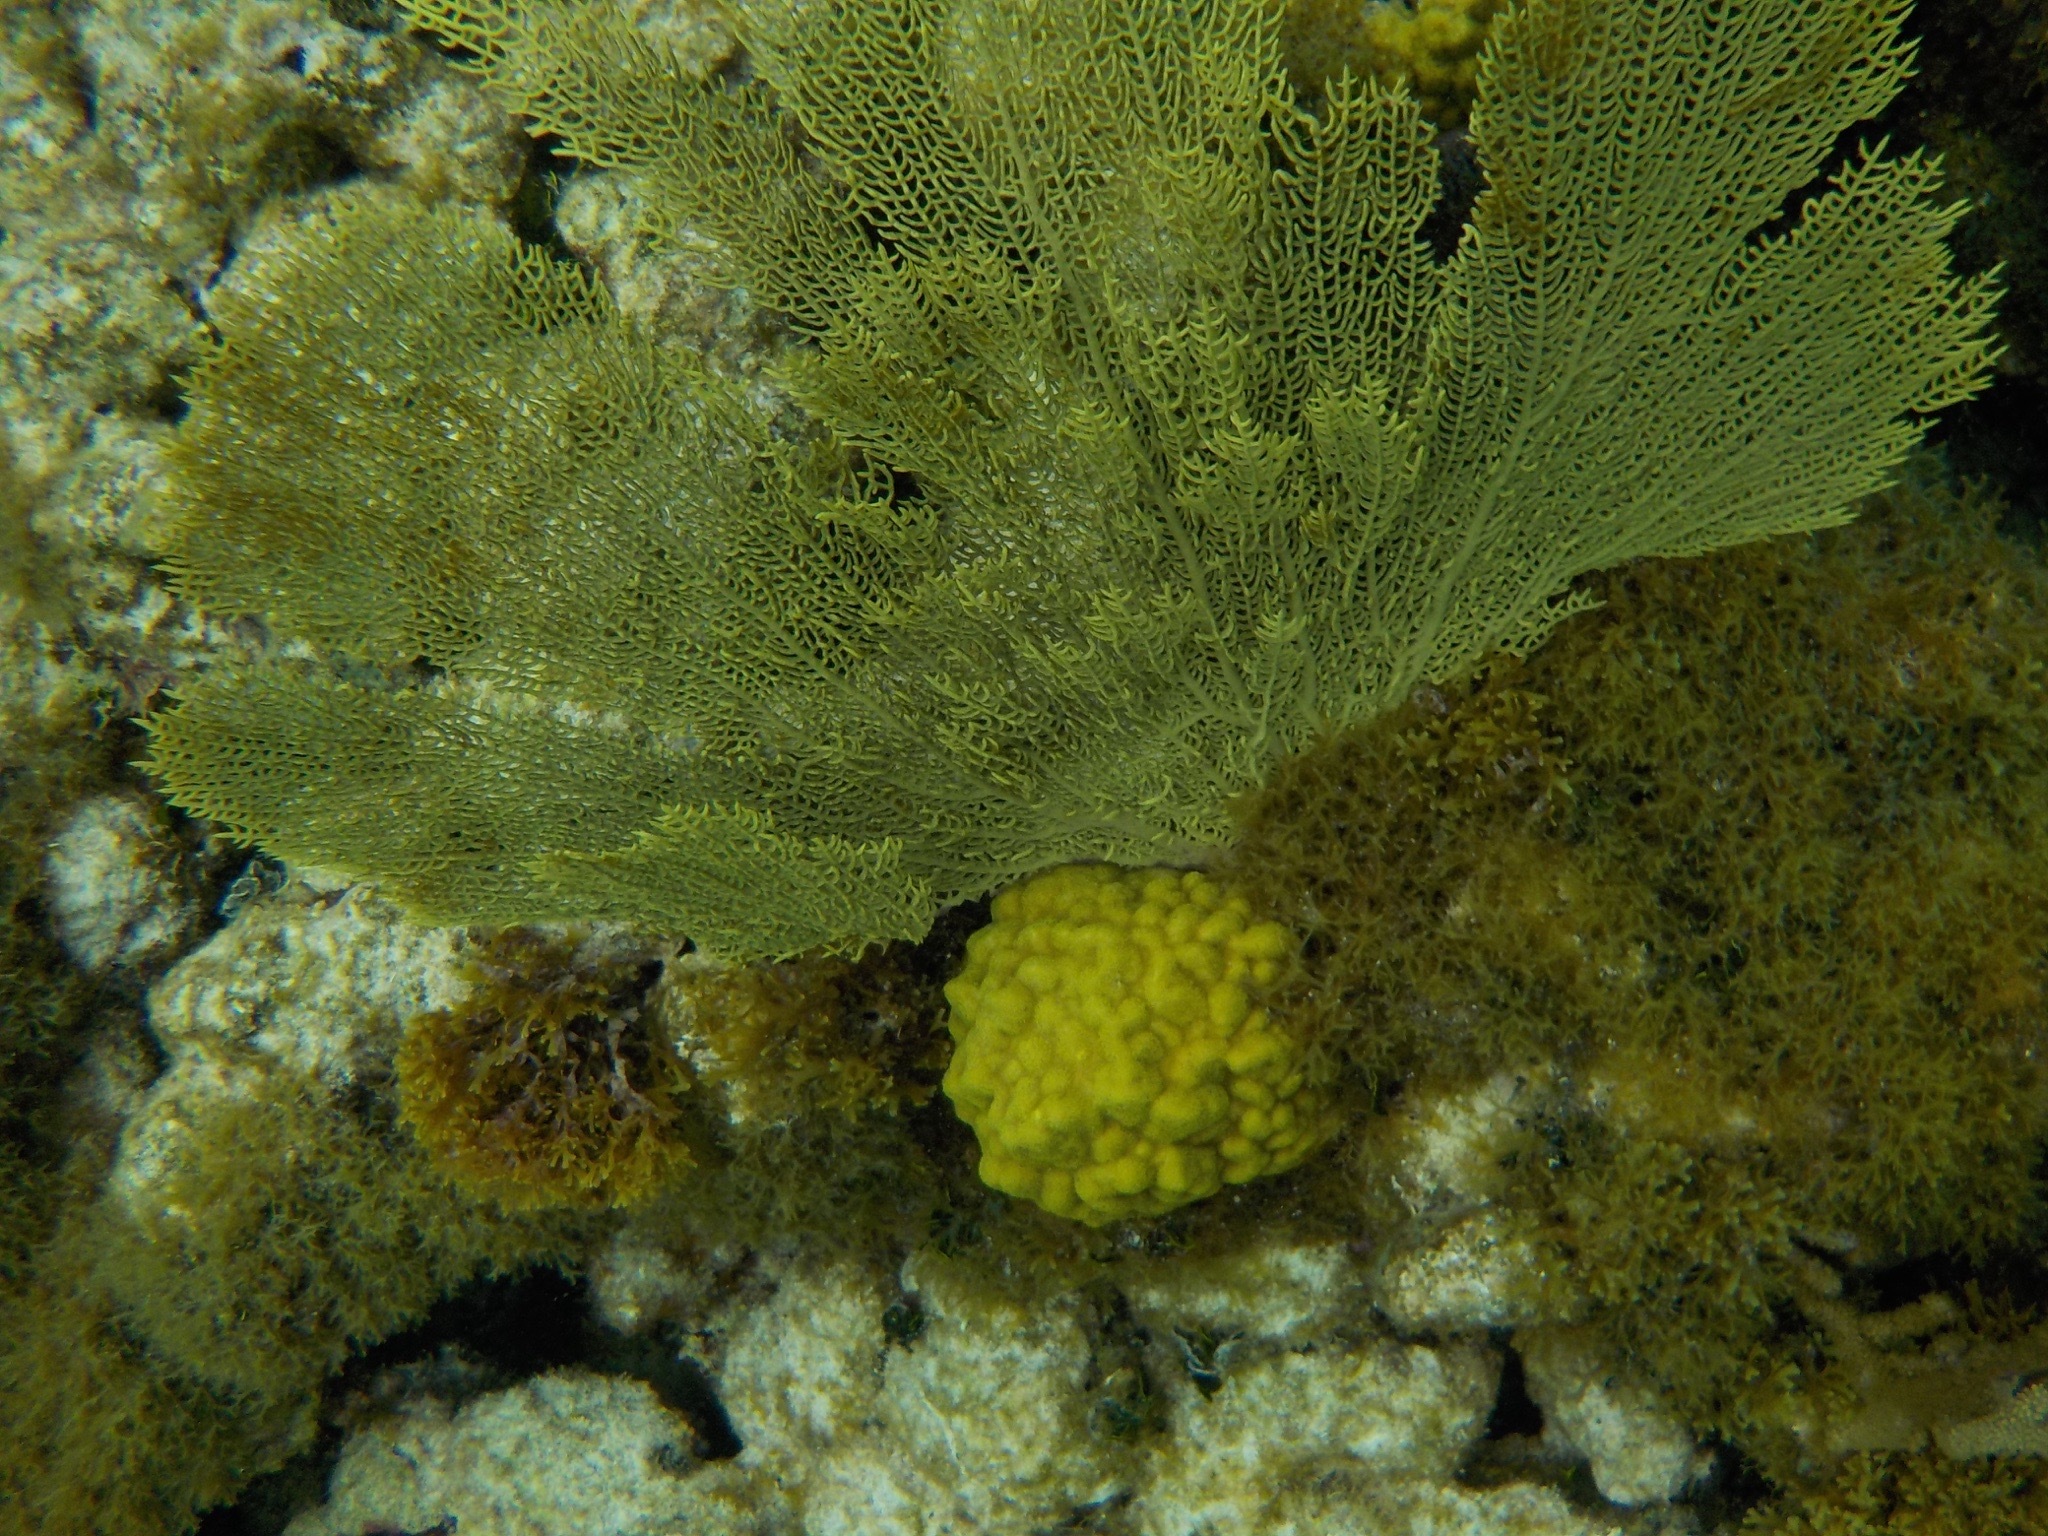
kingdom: Animalia
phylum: Cnidaria
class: Anthozoa
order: Malacalcyonacea
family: Gorgoniidae
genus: Gorgonia
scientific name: Gorgonia ventalina
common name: Common sea fan
